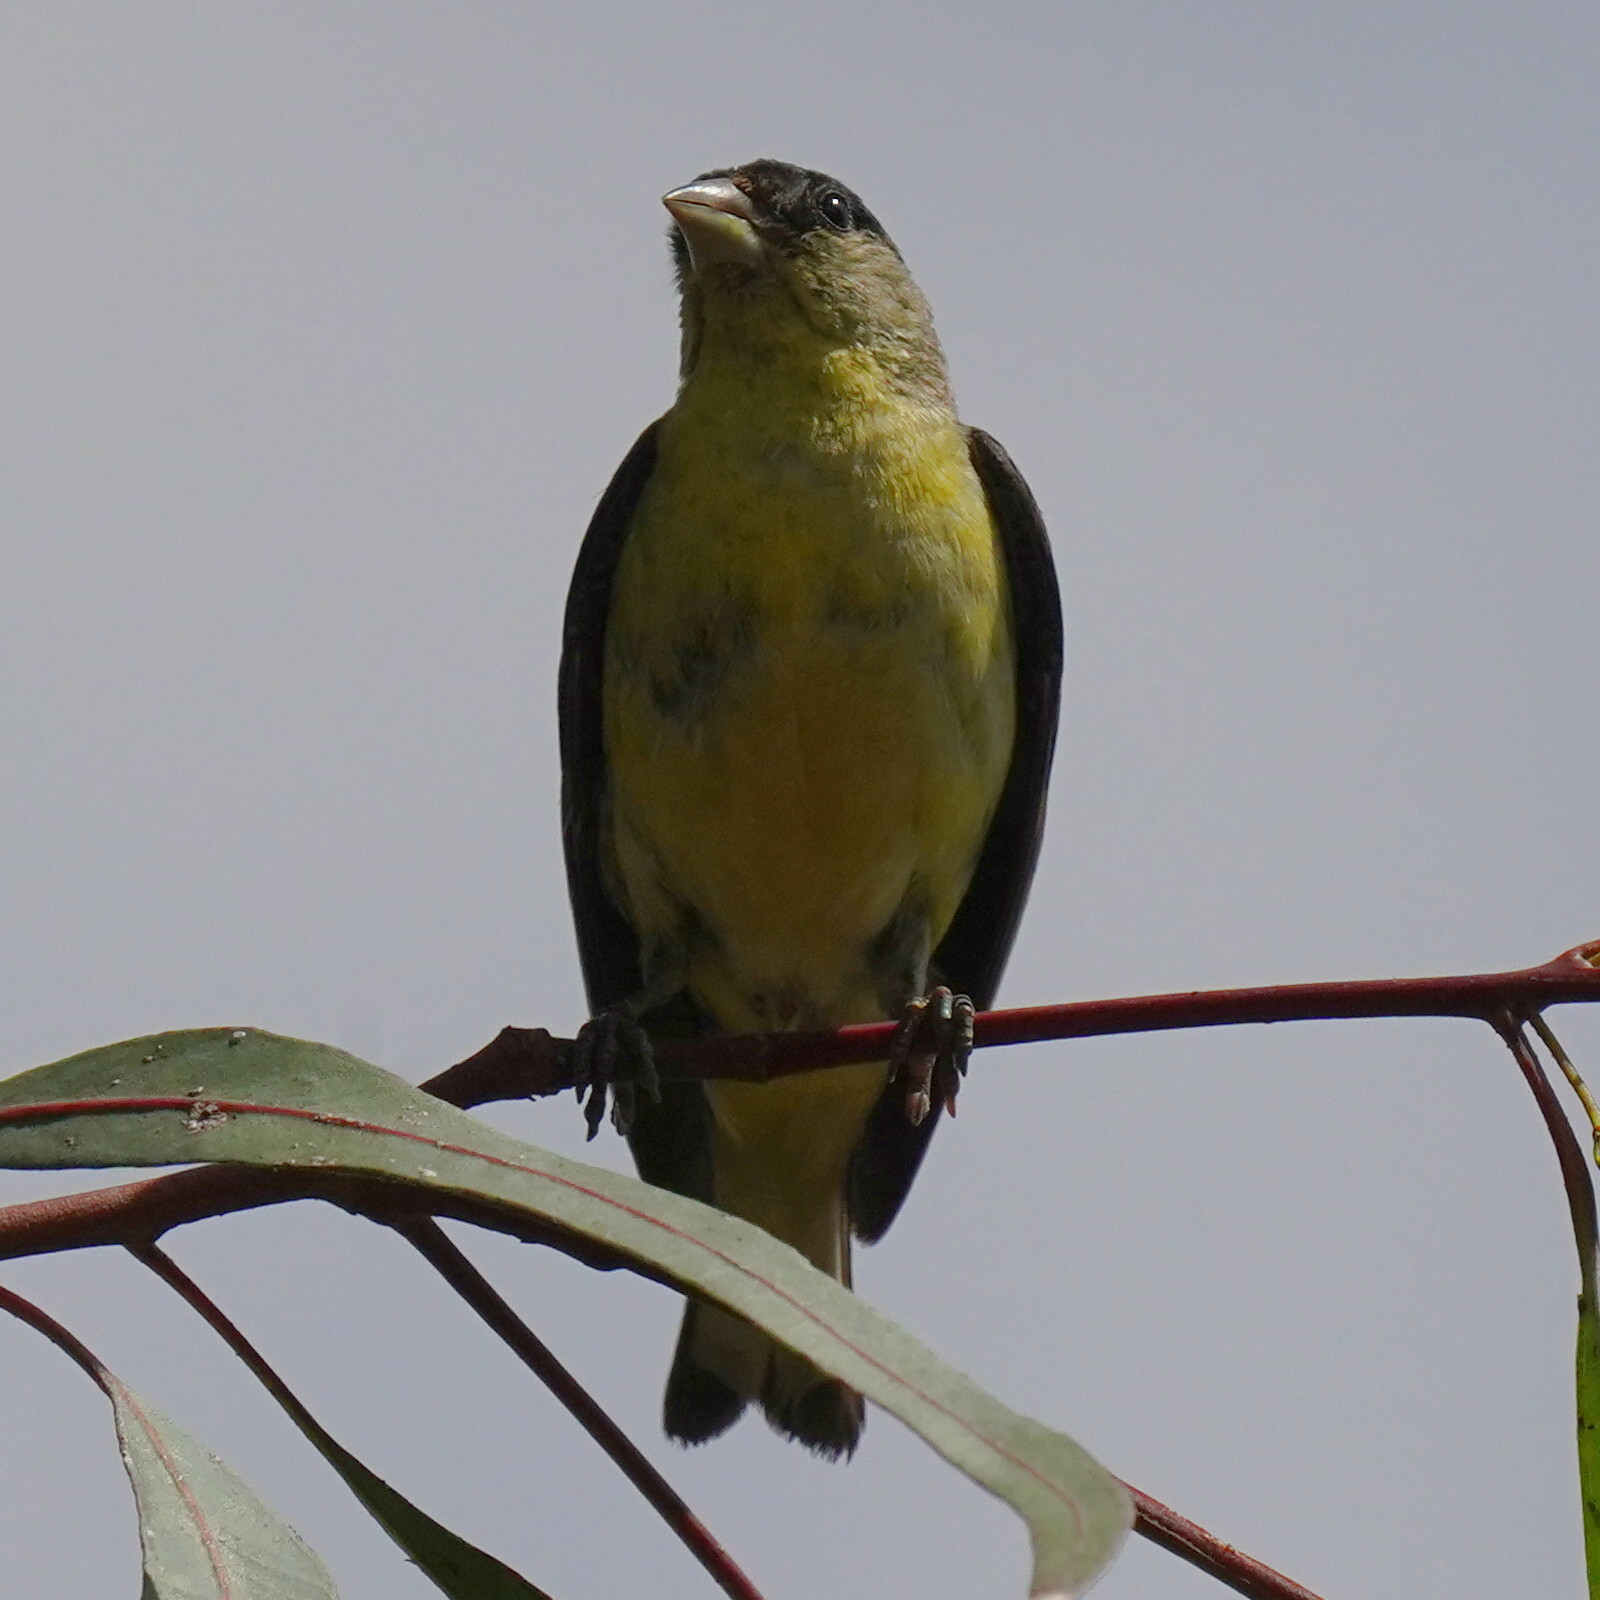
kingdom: Animalia
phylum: Chordata
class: Aves
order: Passeriformes
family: Fringillidae
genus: Spinus
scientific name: Spinus psaltria
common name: Lesser goldfinch
